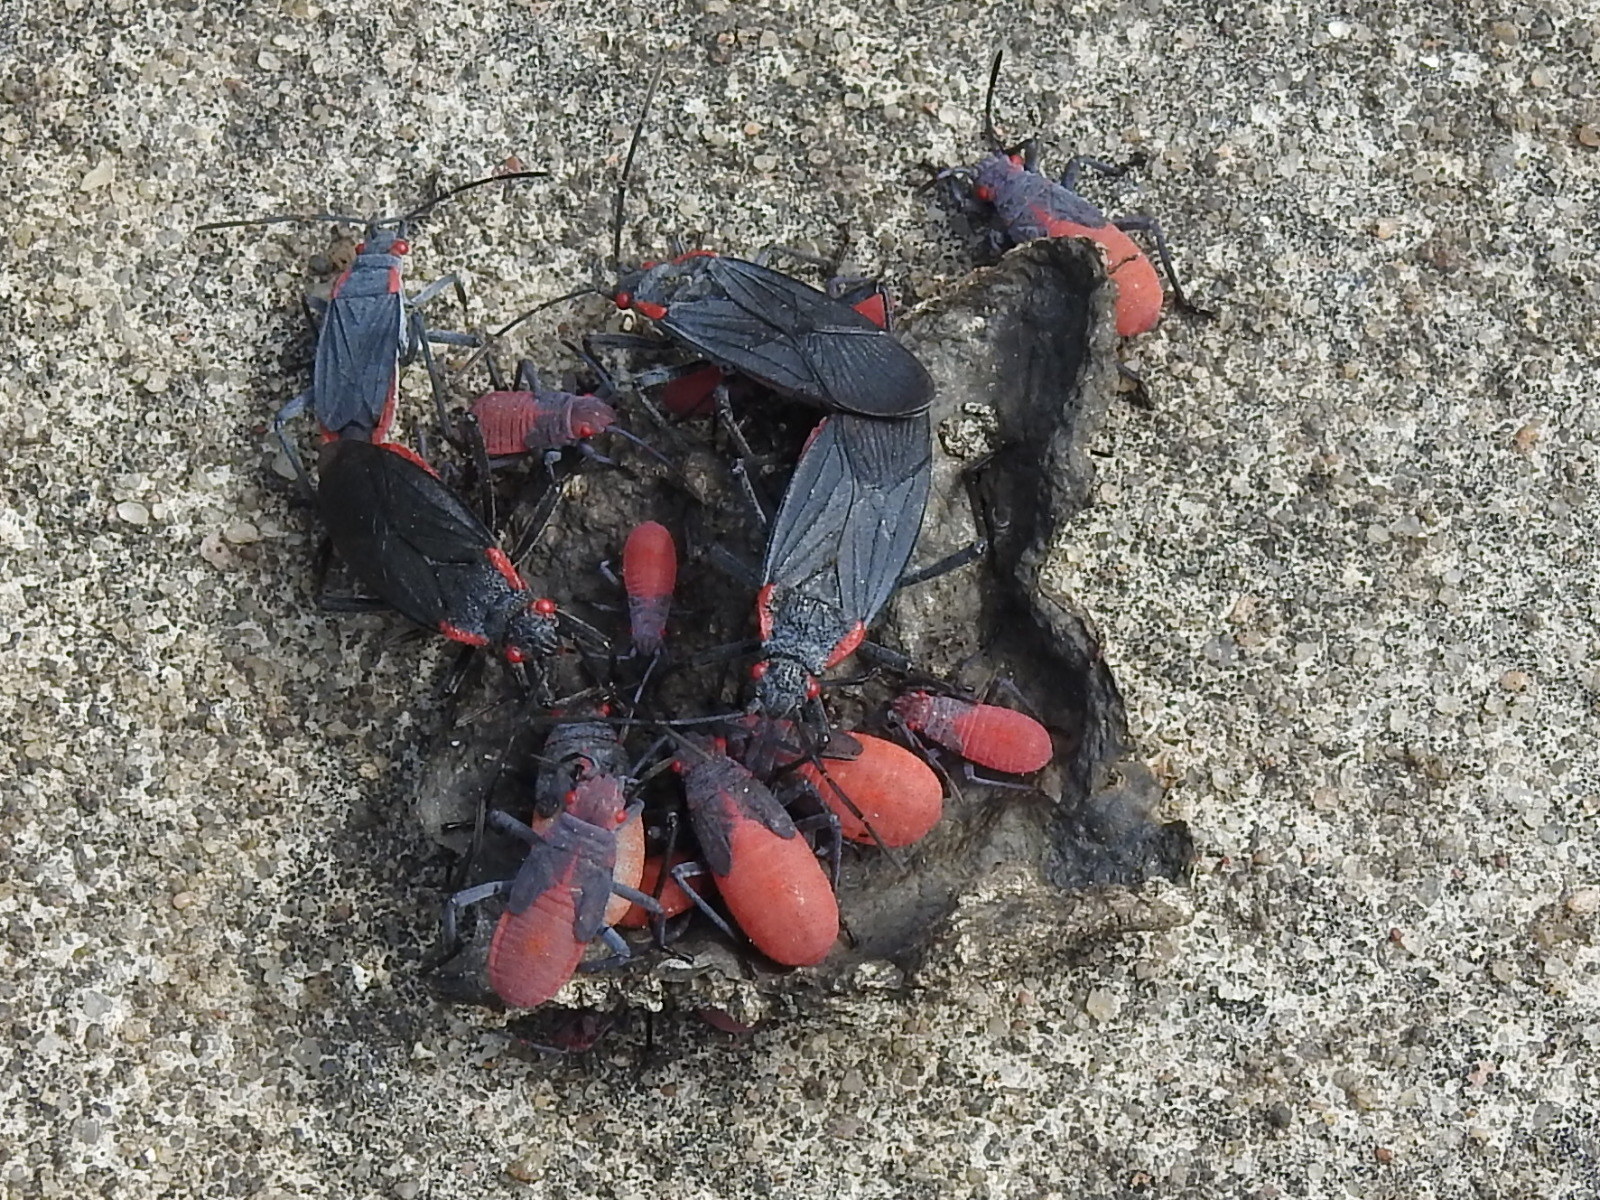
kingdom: Animalia
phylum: Arthropoda
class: Insecta
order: Hemiptera
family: Rhopalidae
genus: Jadera
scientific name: Jadera haematoloma
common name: Red-shouldered bug
